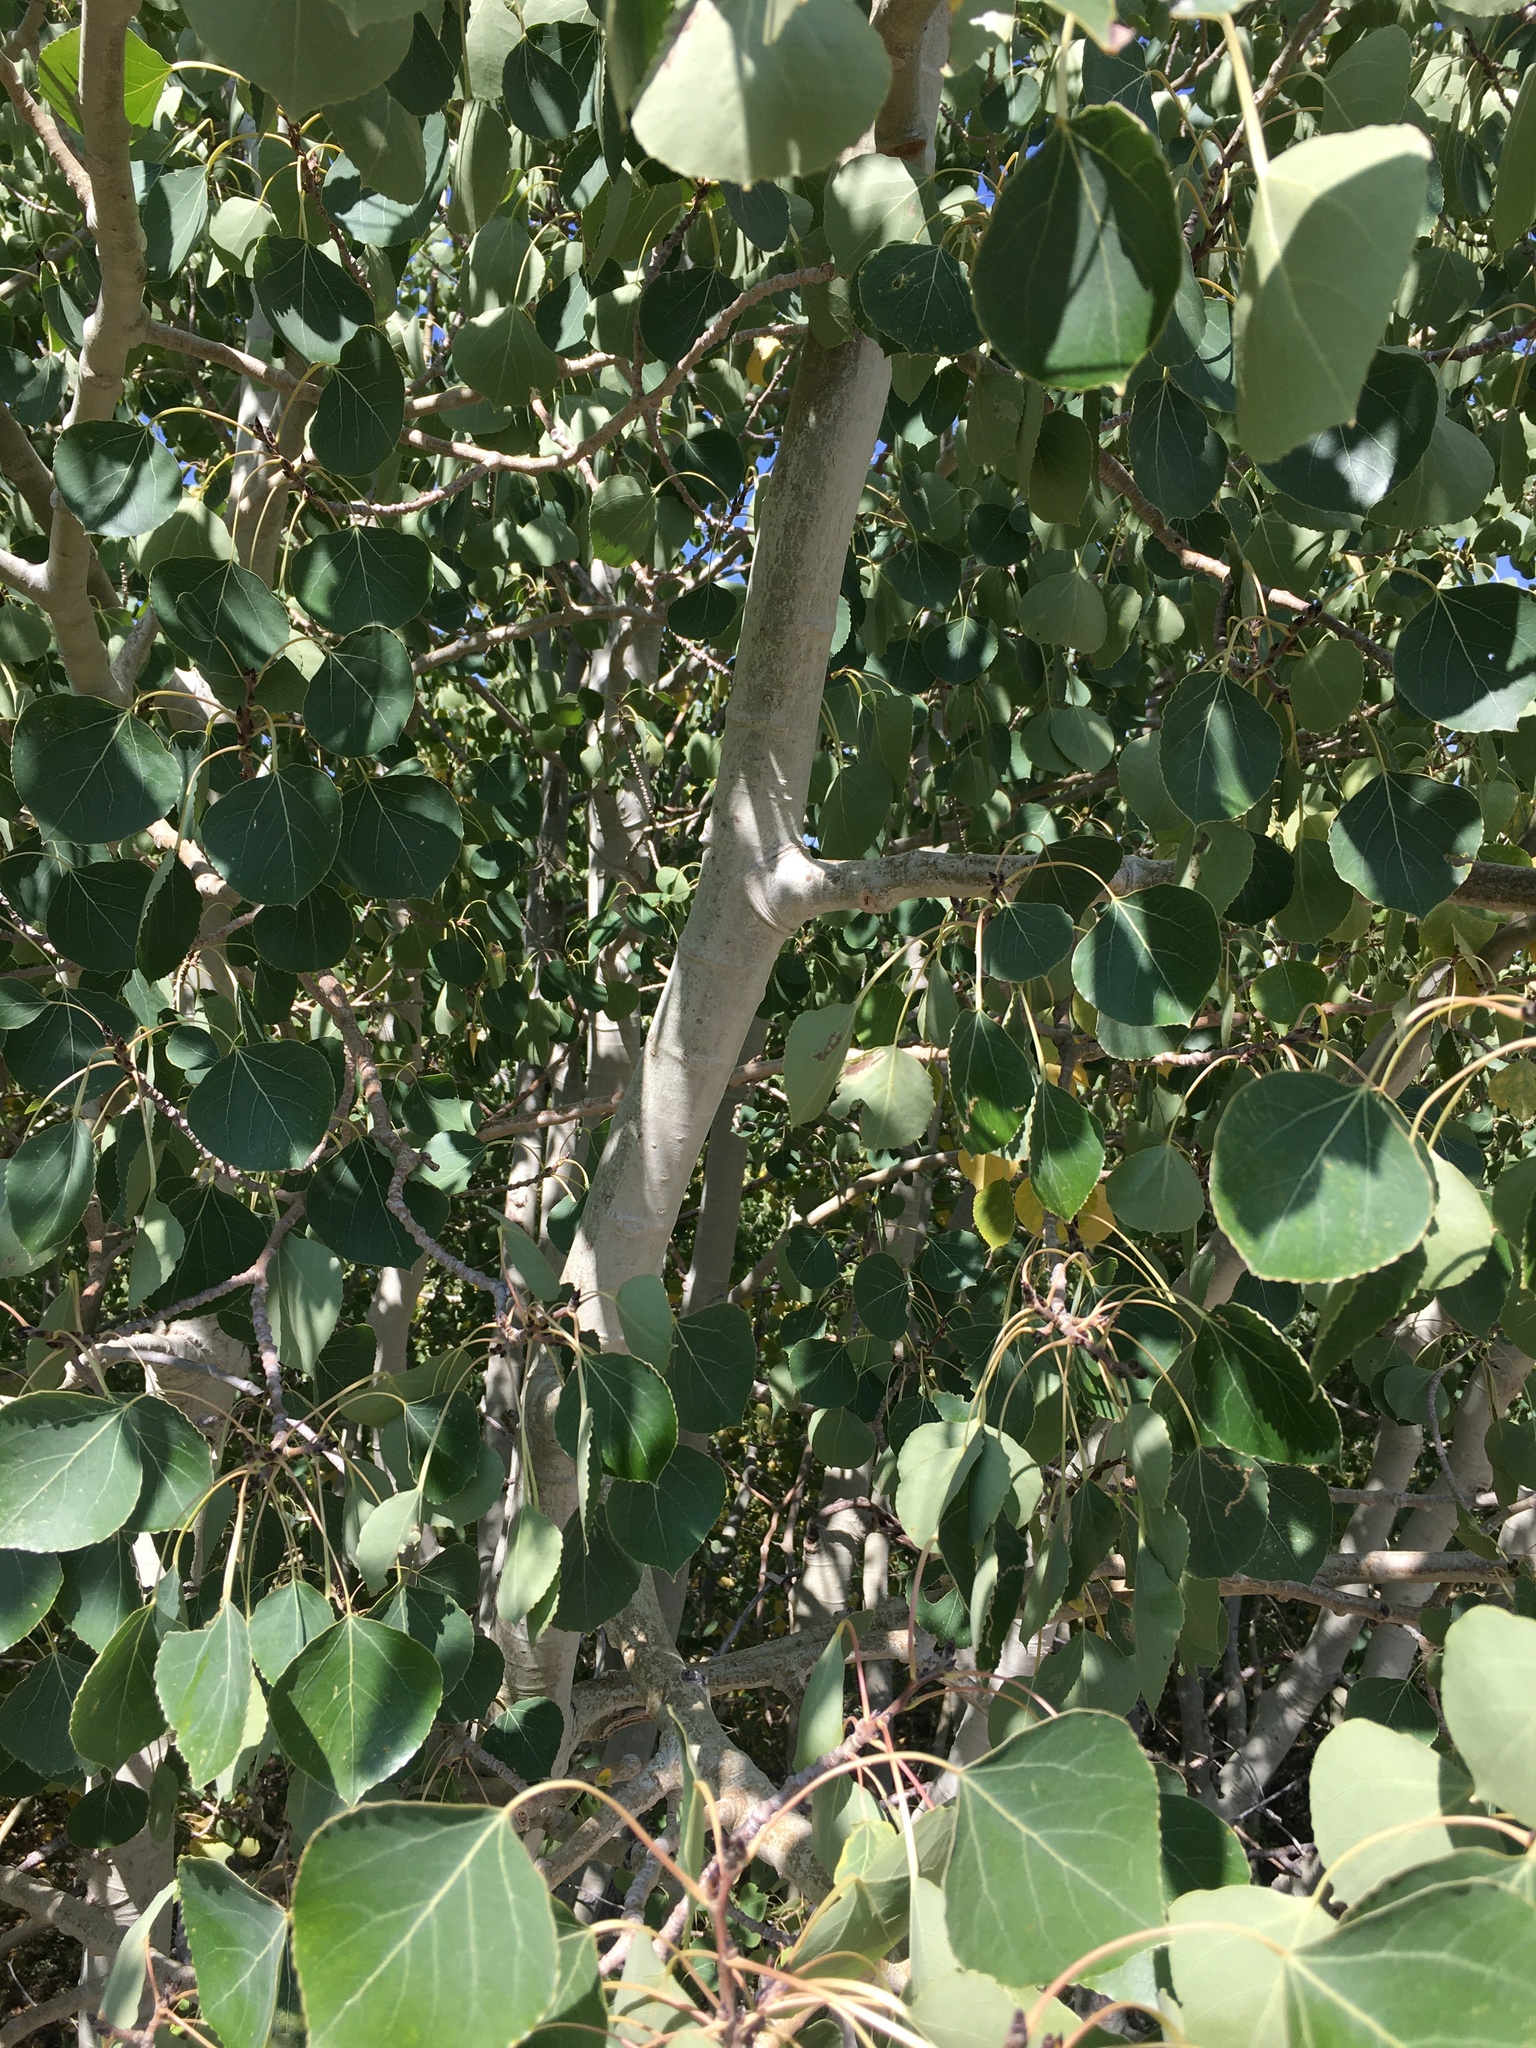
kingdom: Plantae
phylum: Tracheophyta
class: Magnoliopsida
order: Malpighiales
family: Salicaceae
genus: Populus
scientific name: Populus tremuloides
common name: Quaking aspen
